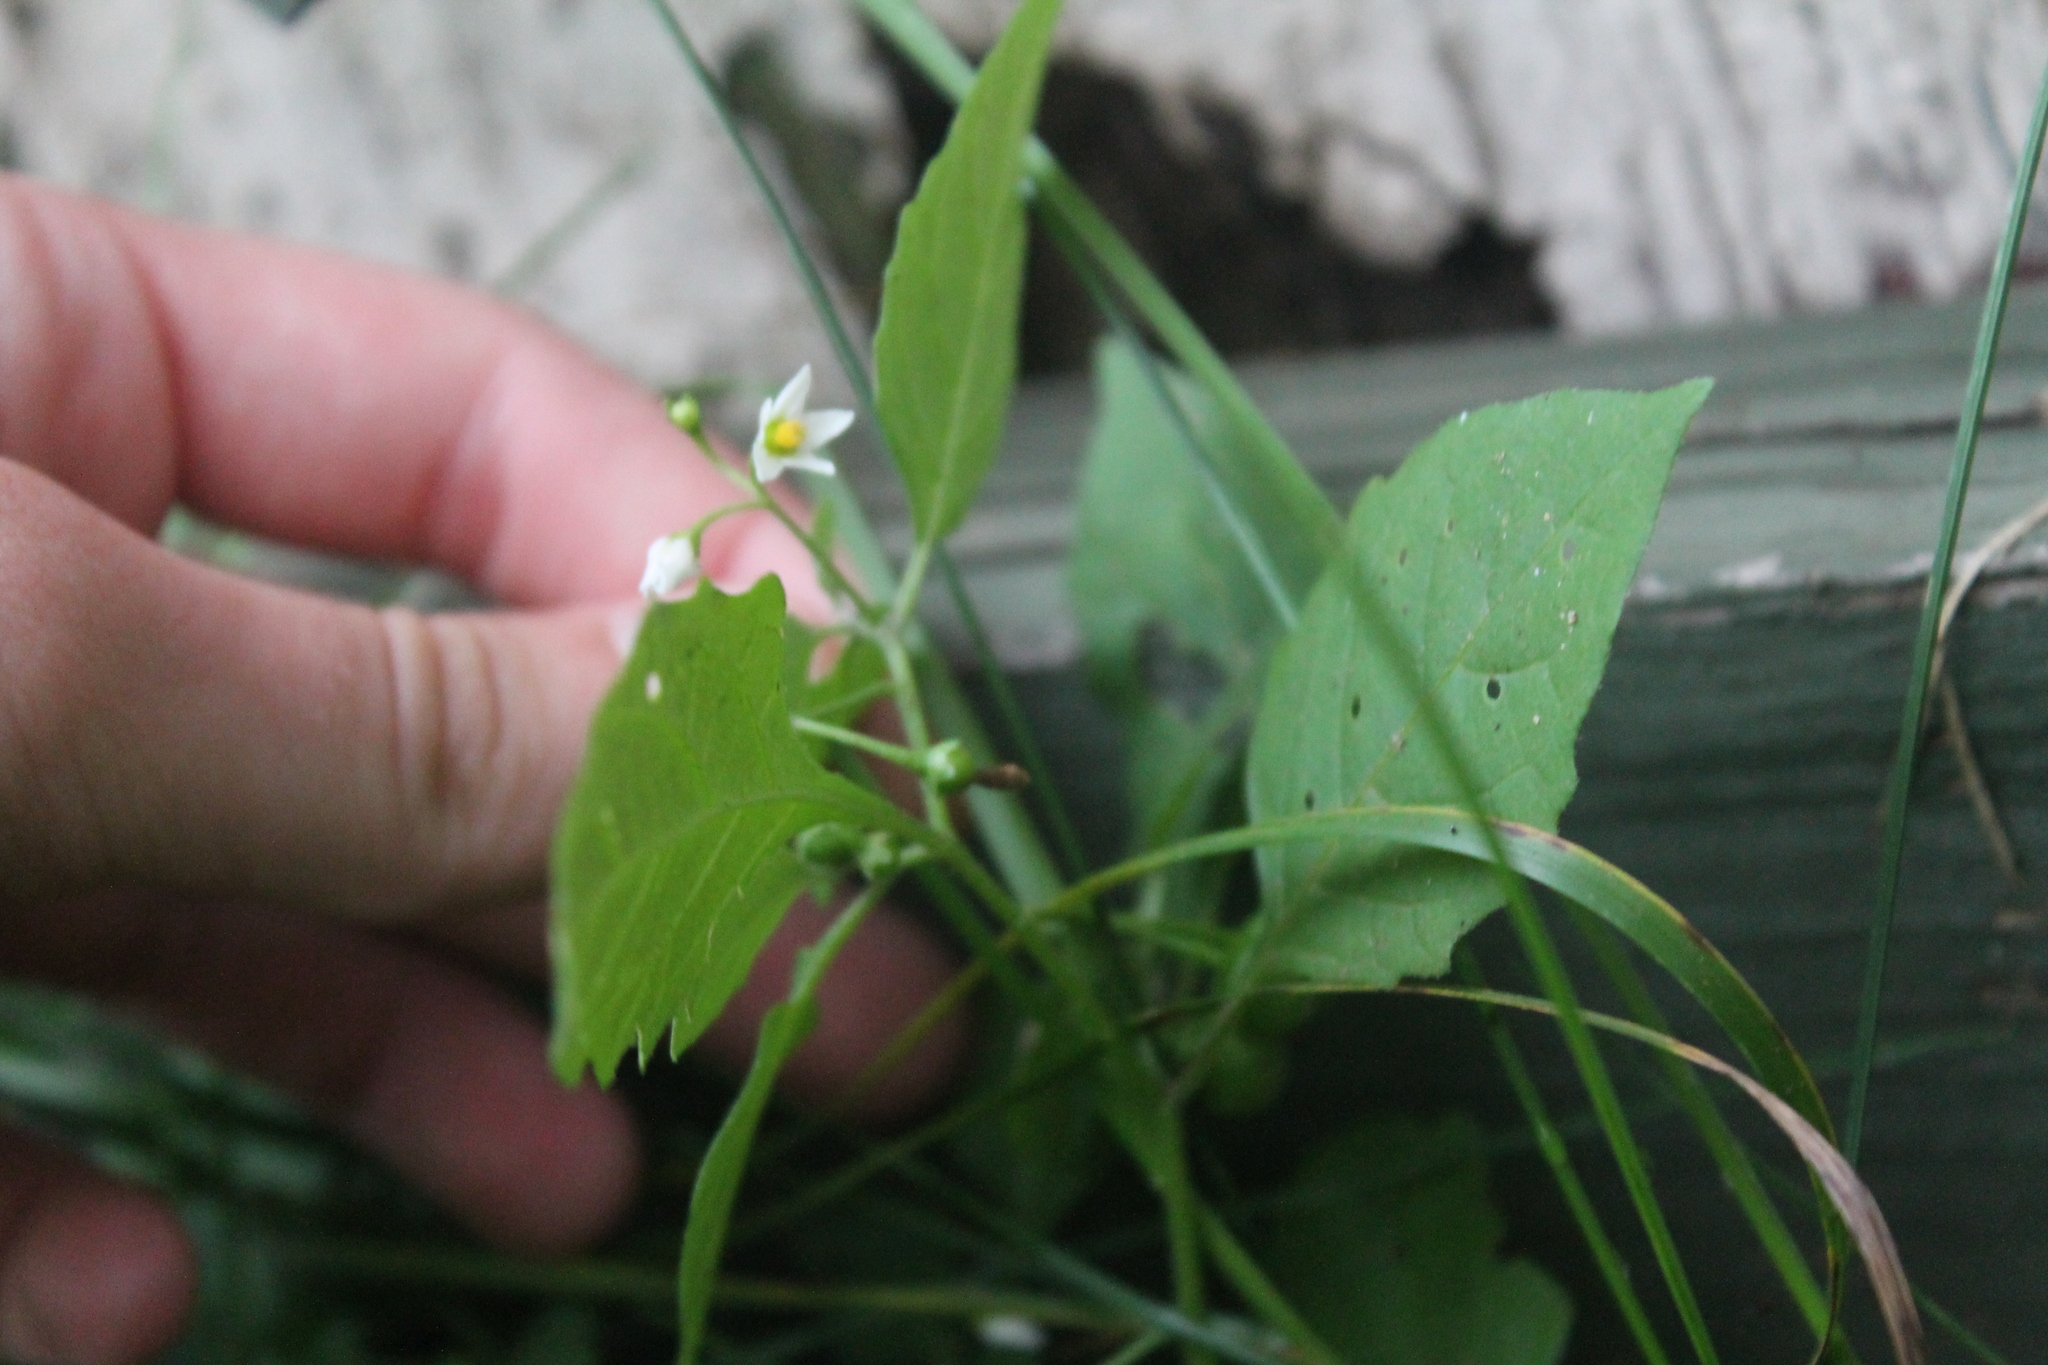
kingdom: Plantae
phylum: Tracheophyta
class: Magnoliopsida
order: Solanales
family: Solanaceae
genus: Solanum
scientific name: Solanum emulans
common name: Eastern black nightshade
